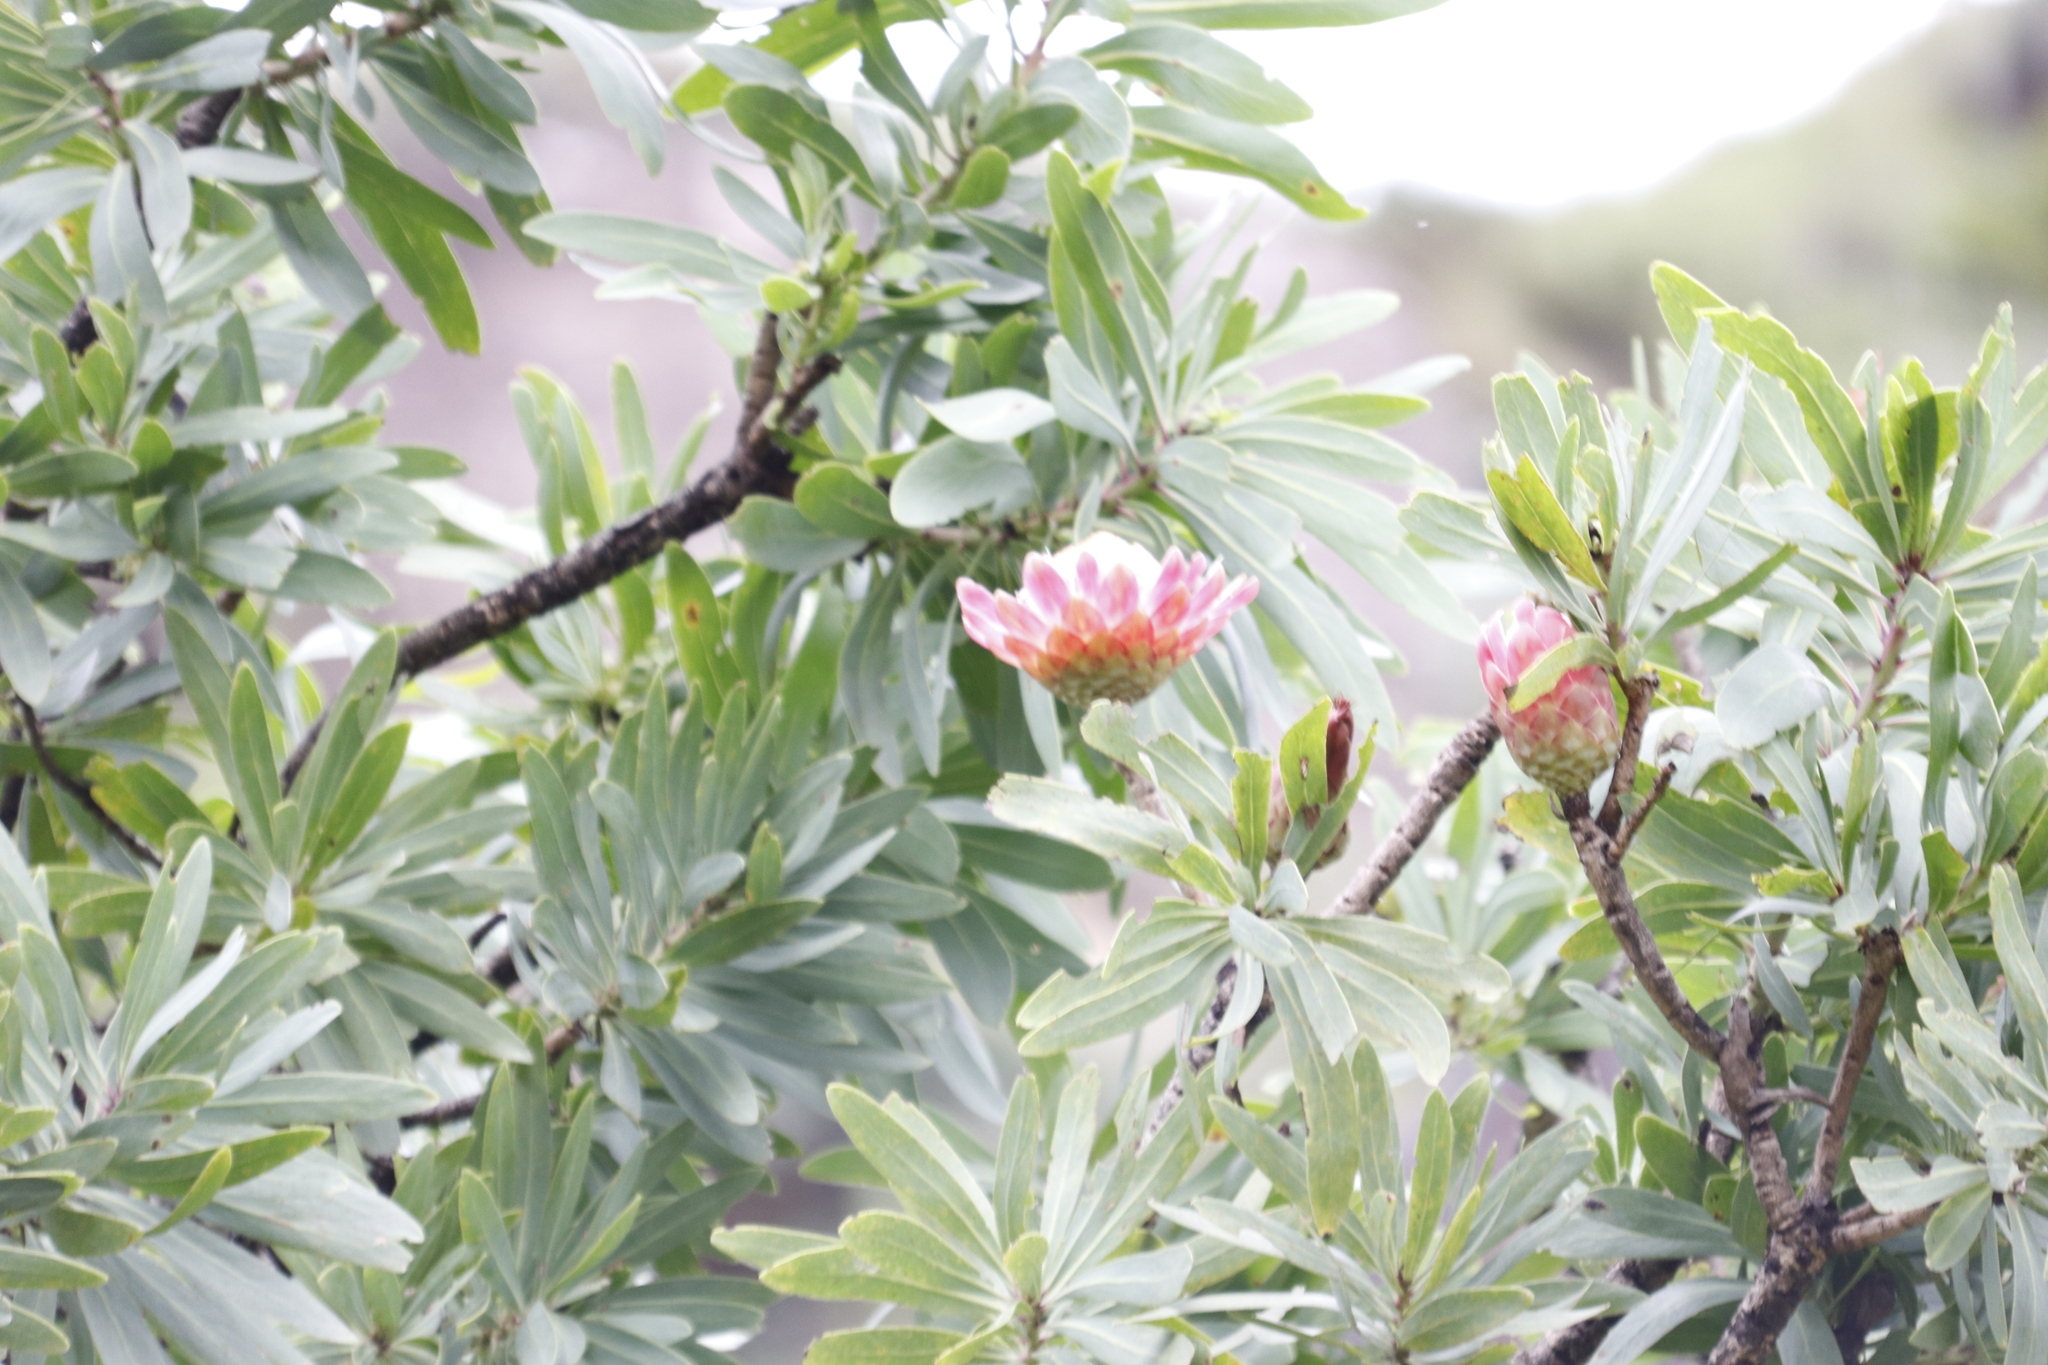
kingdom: Plantae
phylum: Tracheophyta
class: Magnoliopsida
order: Proteales
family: Proteaceae
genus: Protea
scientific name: Protea caffra
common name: Common sugarbush
